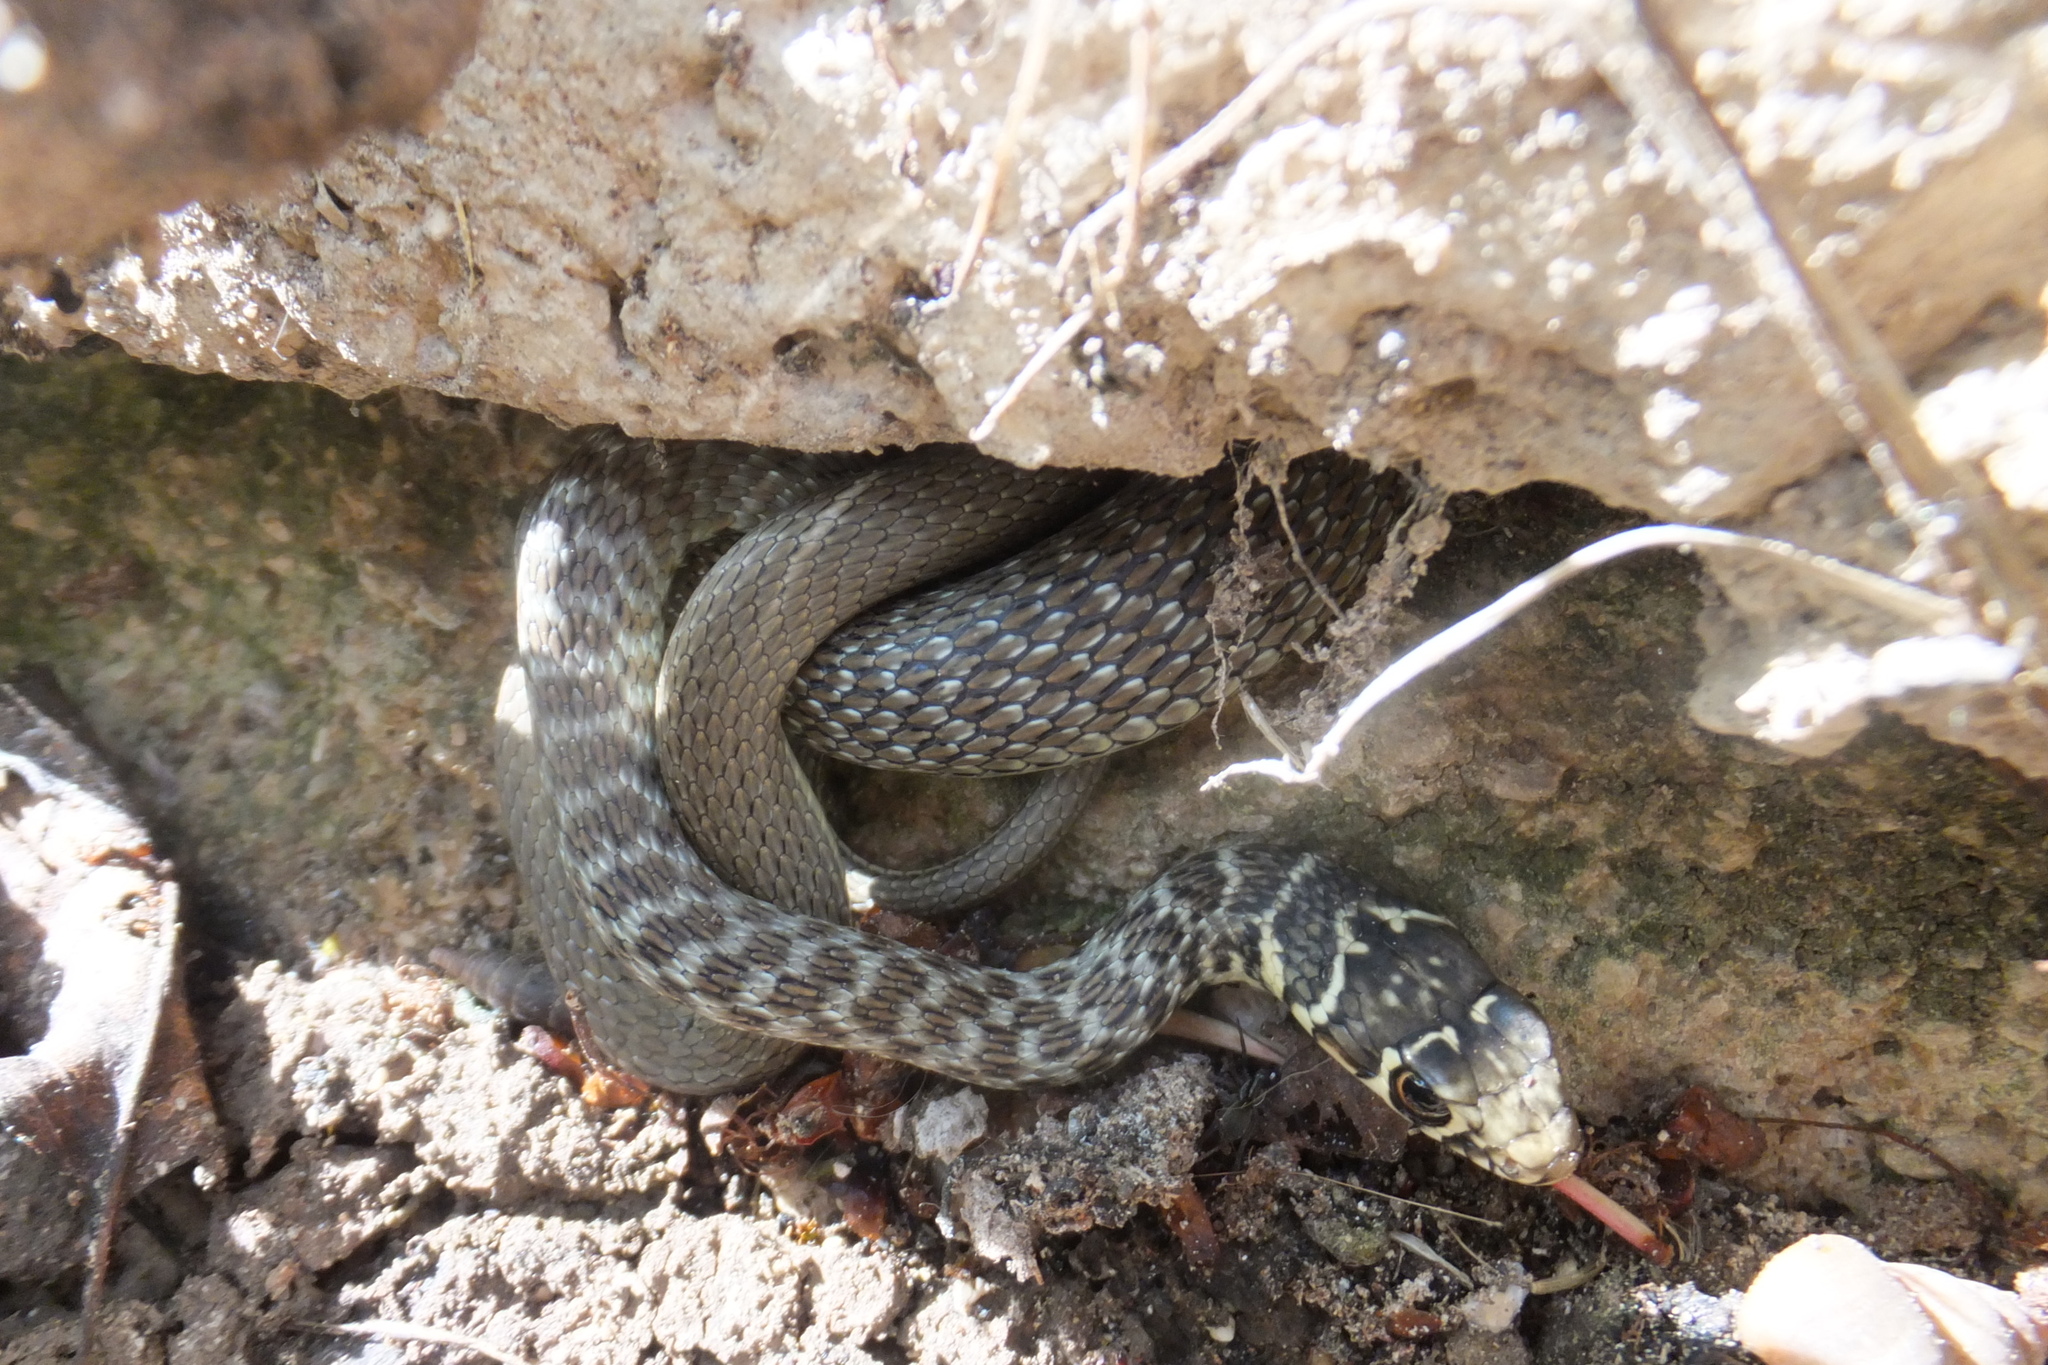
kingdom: Animalia
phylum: Chordata
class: Squamata
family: Colubridae
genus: Hierophis
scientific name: Hierophis viridiflavus
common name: Green whip snake
